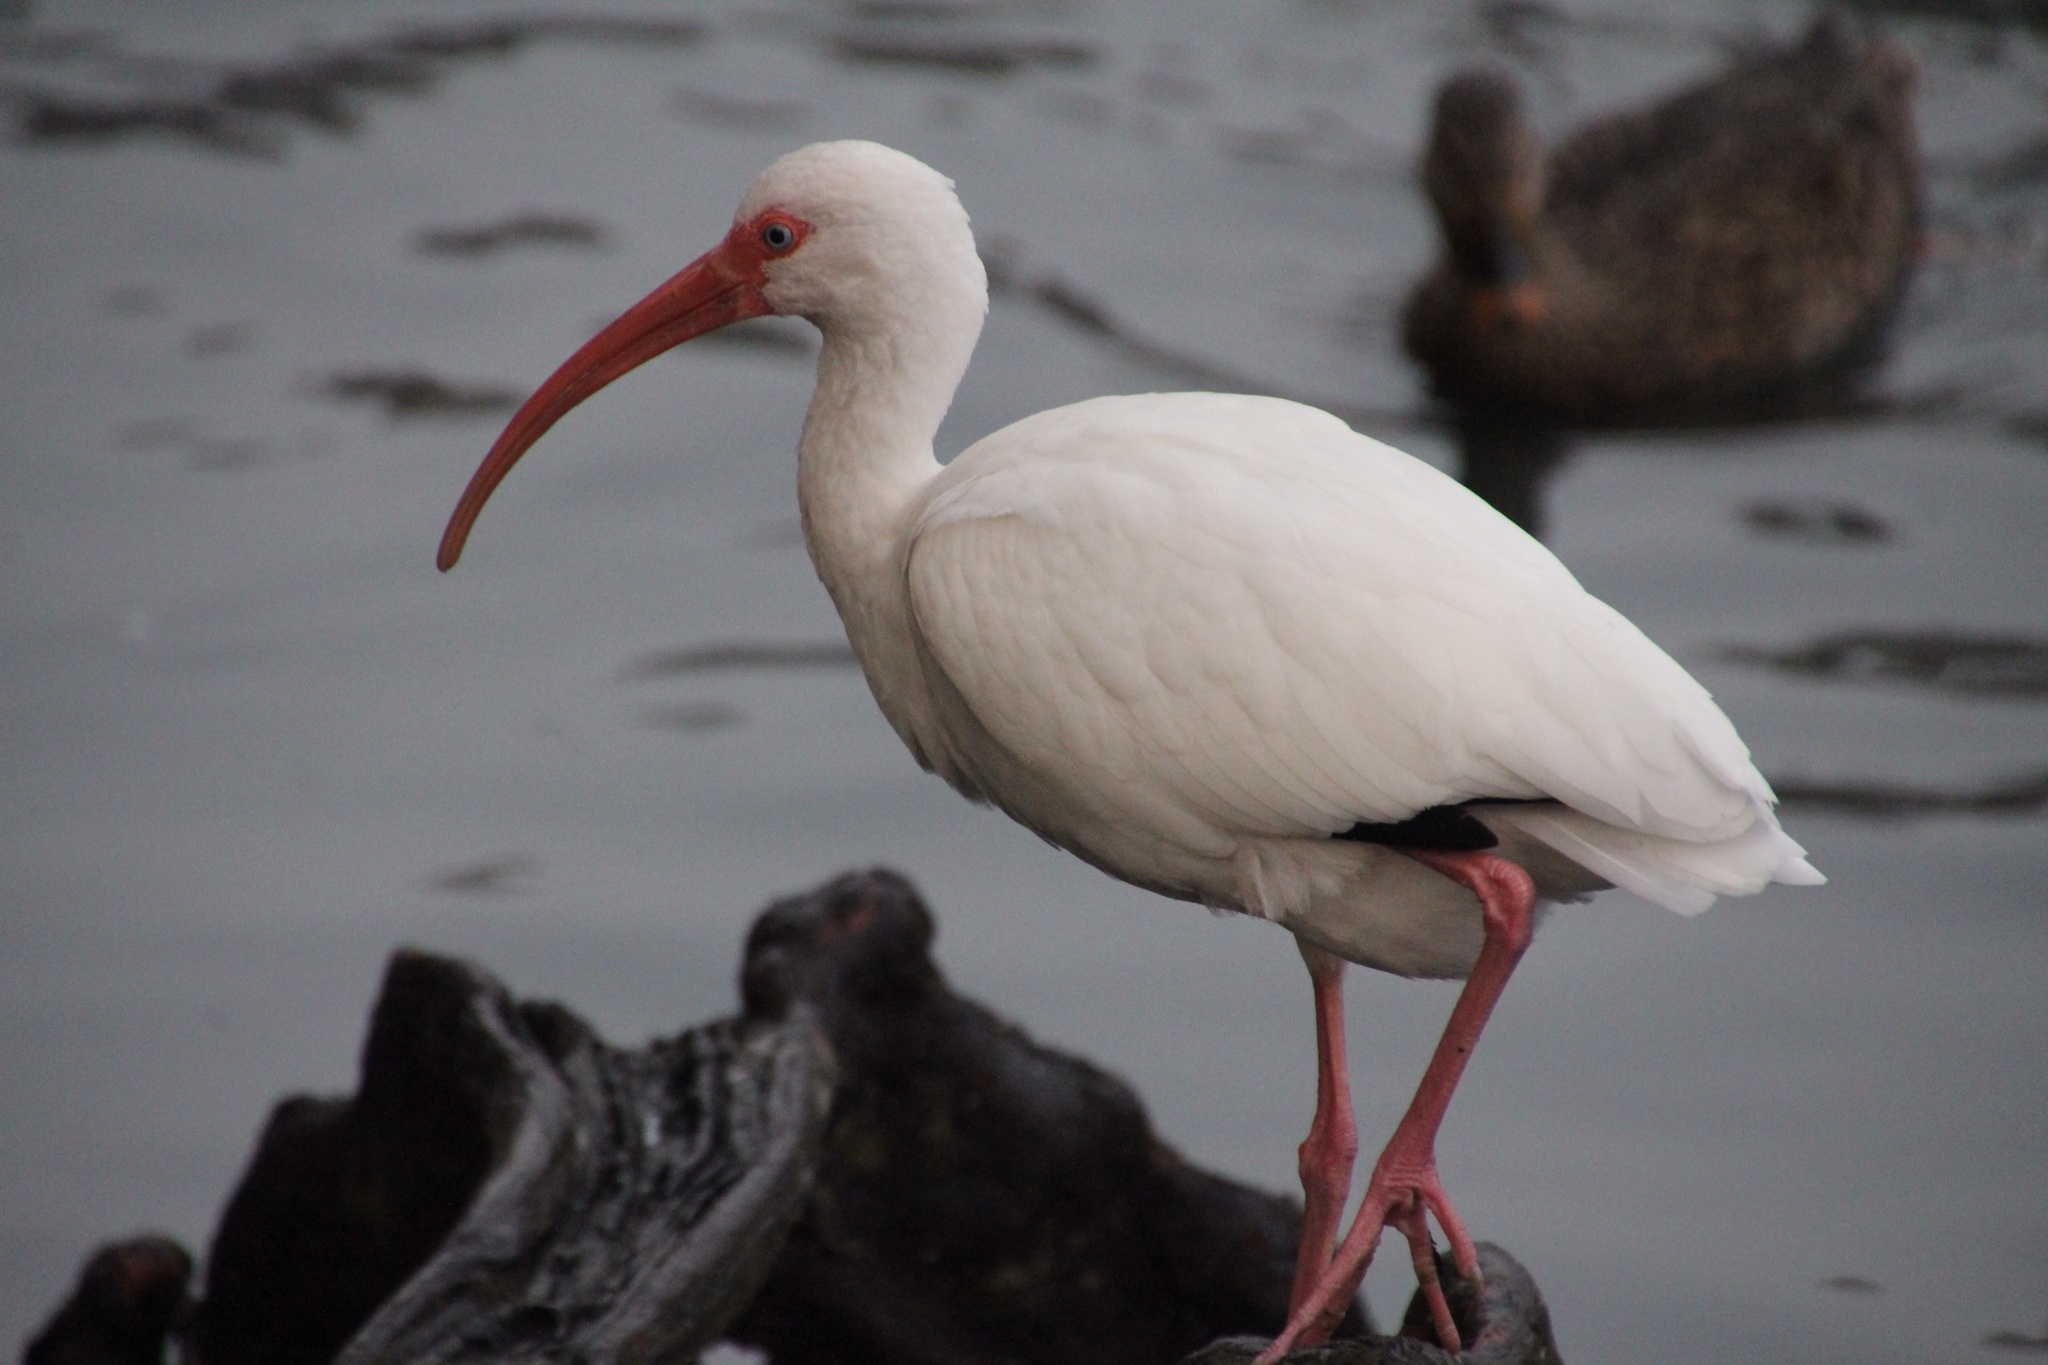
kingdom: Animalia
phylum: Chordata
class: Aves
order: Pelecaniformes
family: Threskiornithidae
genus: Eudocimus
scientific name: Eudocimus albus
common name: White ibis
